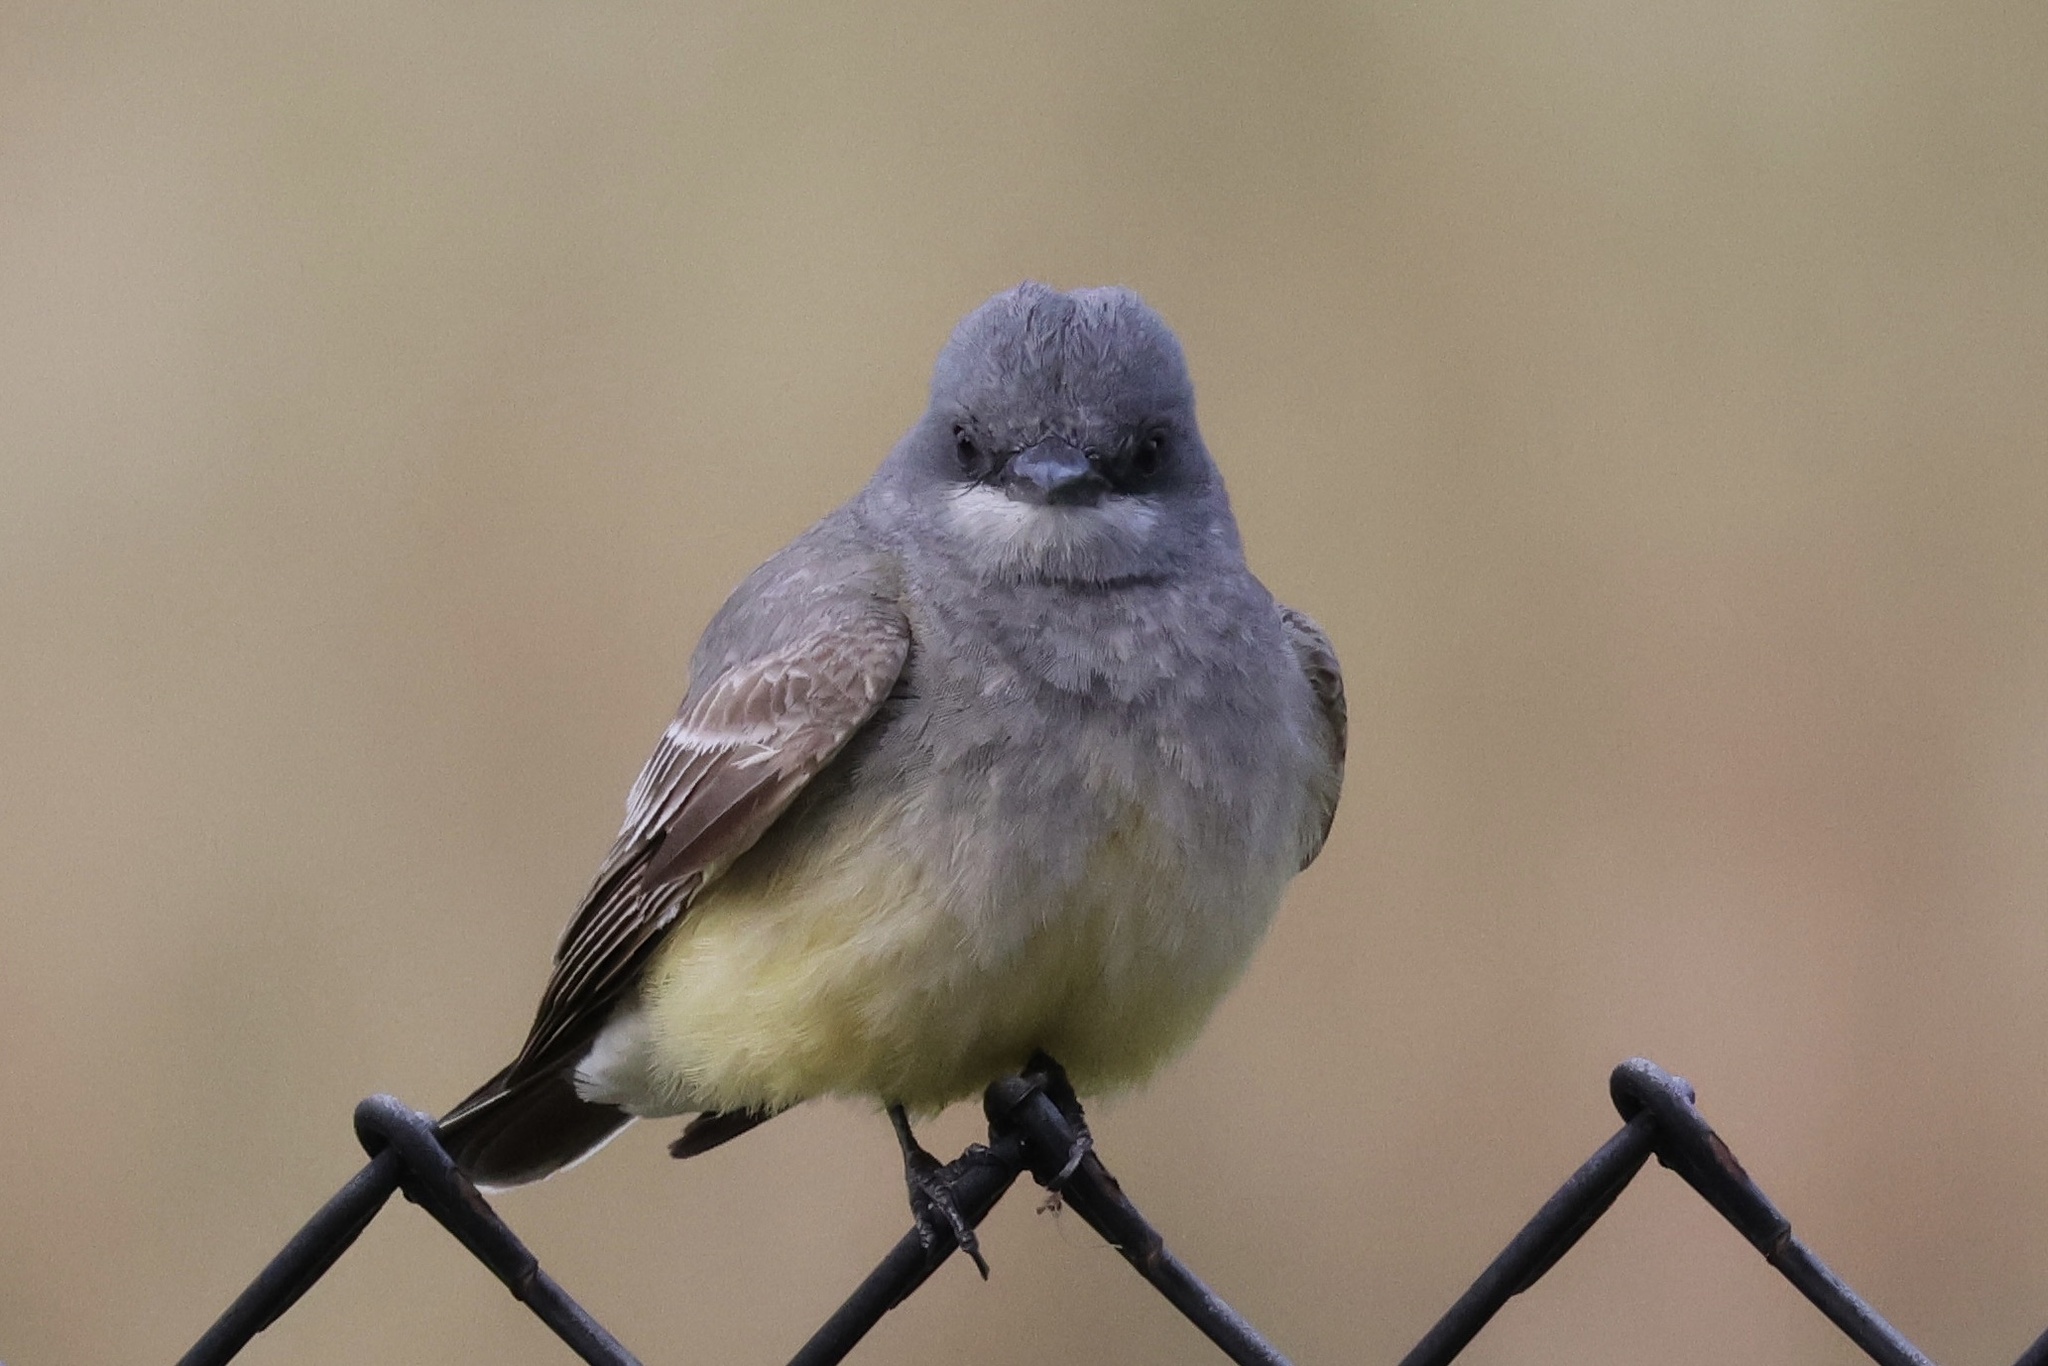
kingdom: Animalia
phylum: Chordata
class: Aves
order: Passeriformes
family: Tyrannidae
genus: Tyrannus
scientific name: Tyrannus vociferans
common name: Cassin's kingbird
